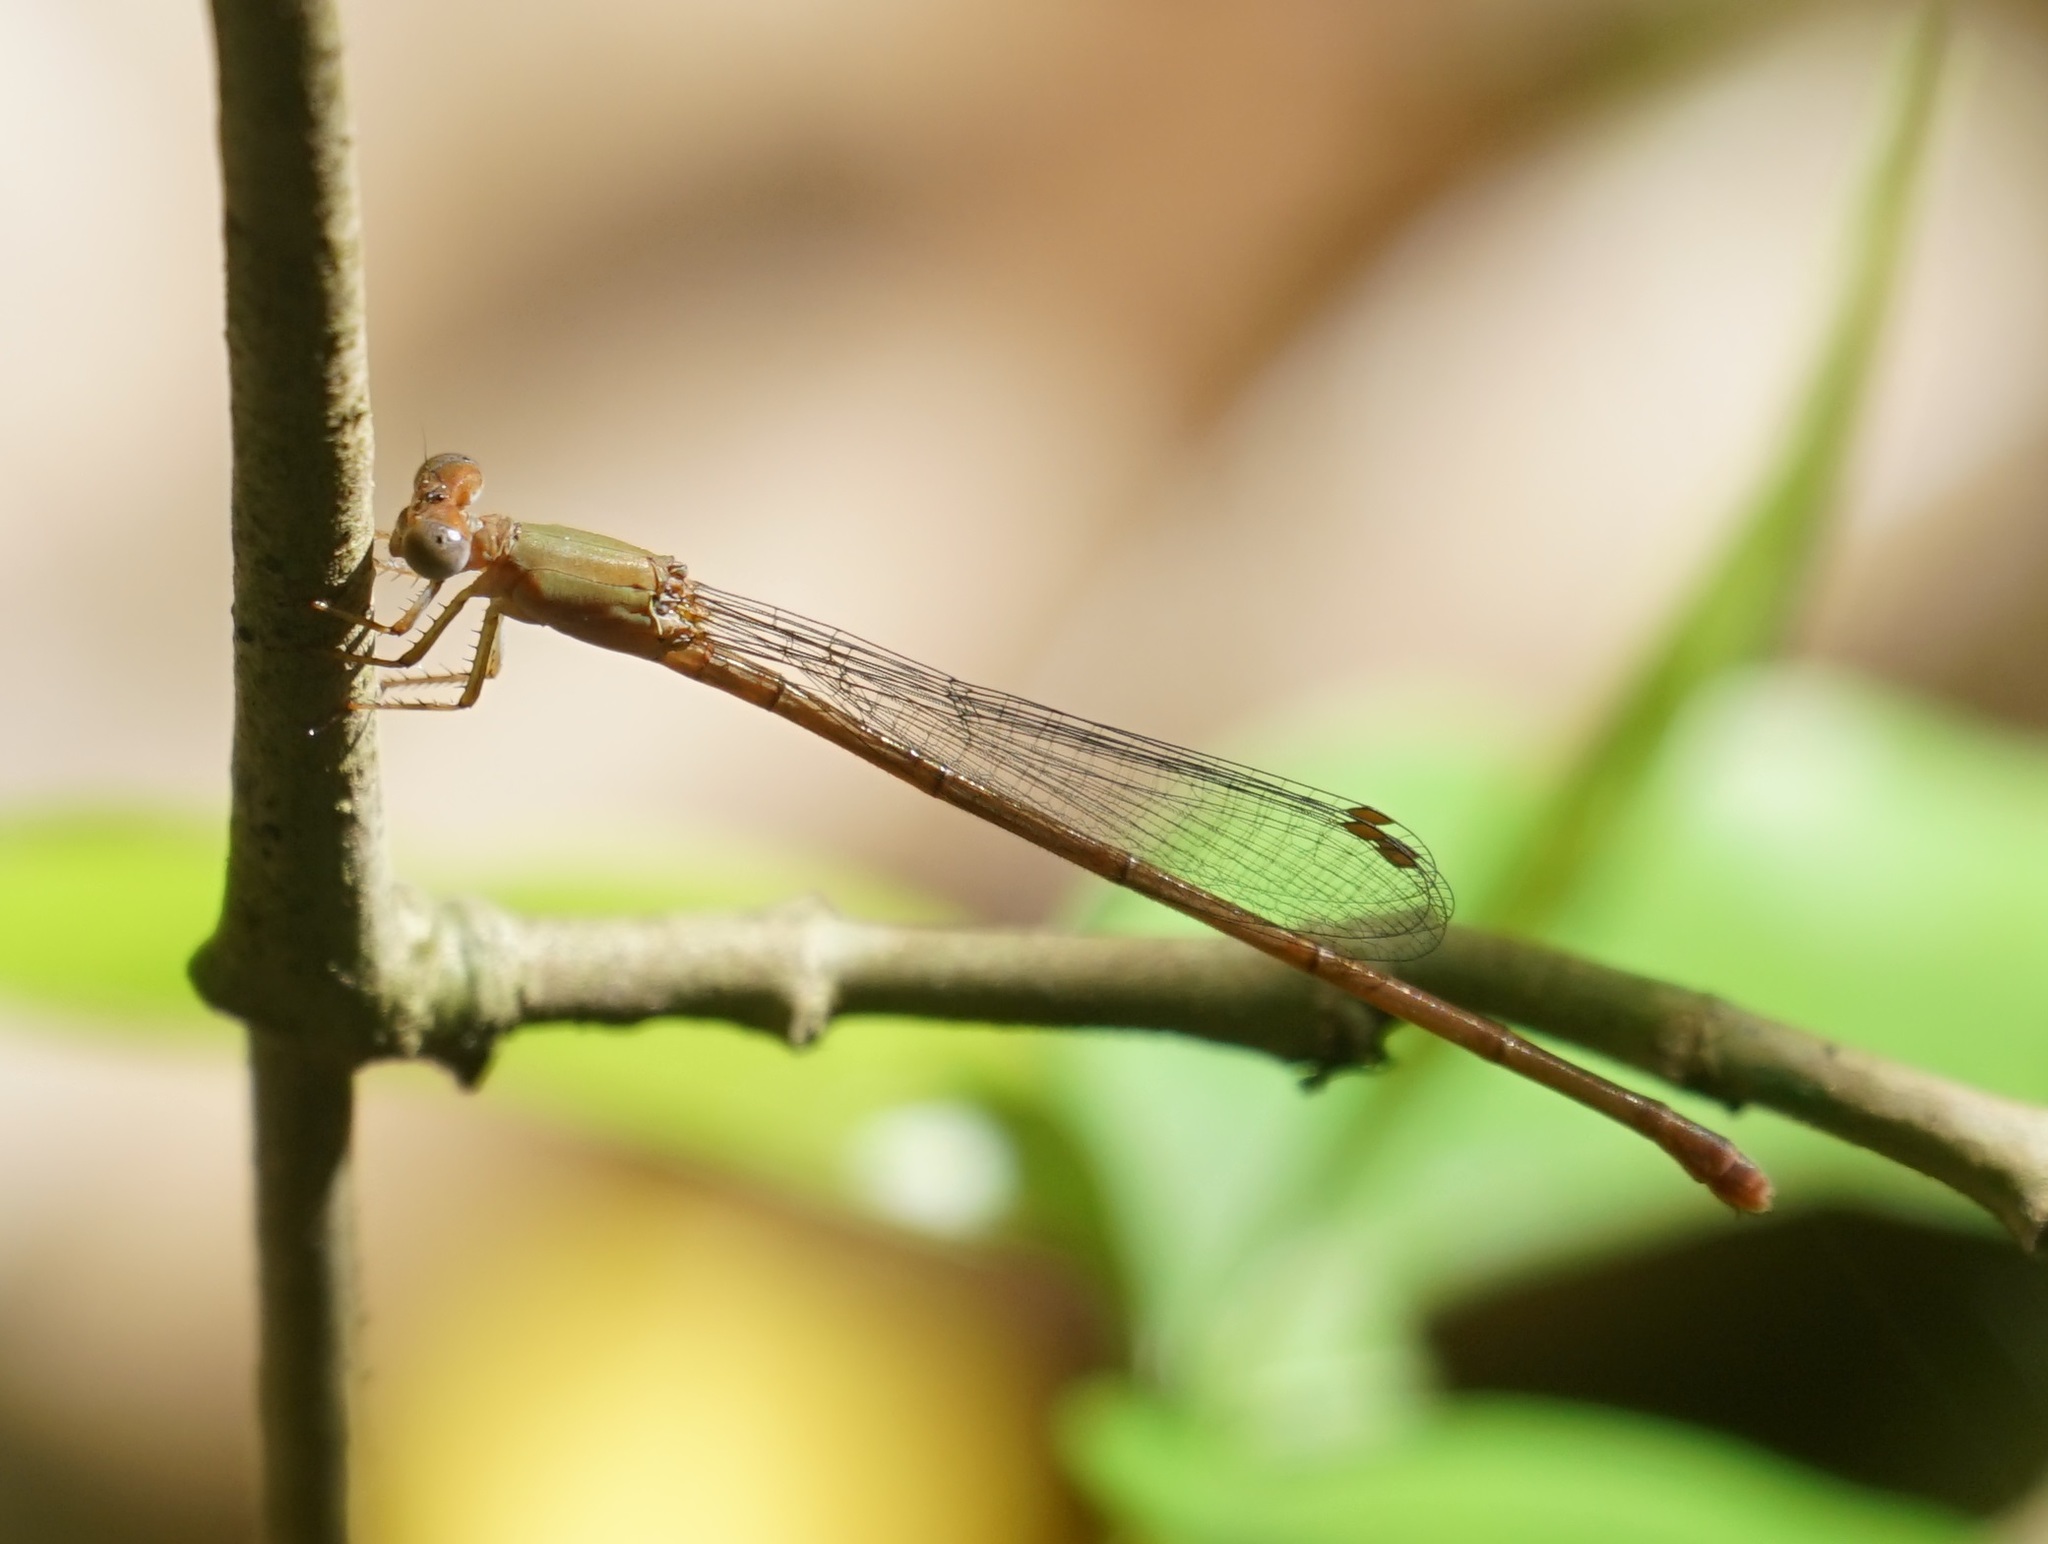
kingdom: Animalia
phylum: Arthropoda
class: Insecta
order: Odonata
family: Coenagrionidae
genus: Ceriagrion
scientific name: Ceriagrion aeruginosum
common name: Redtail
